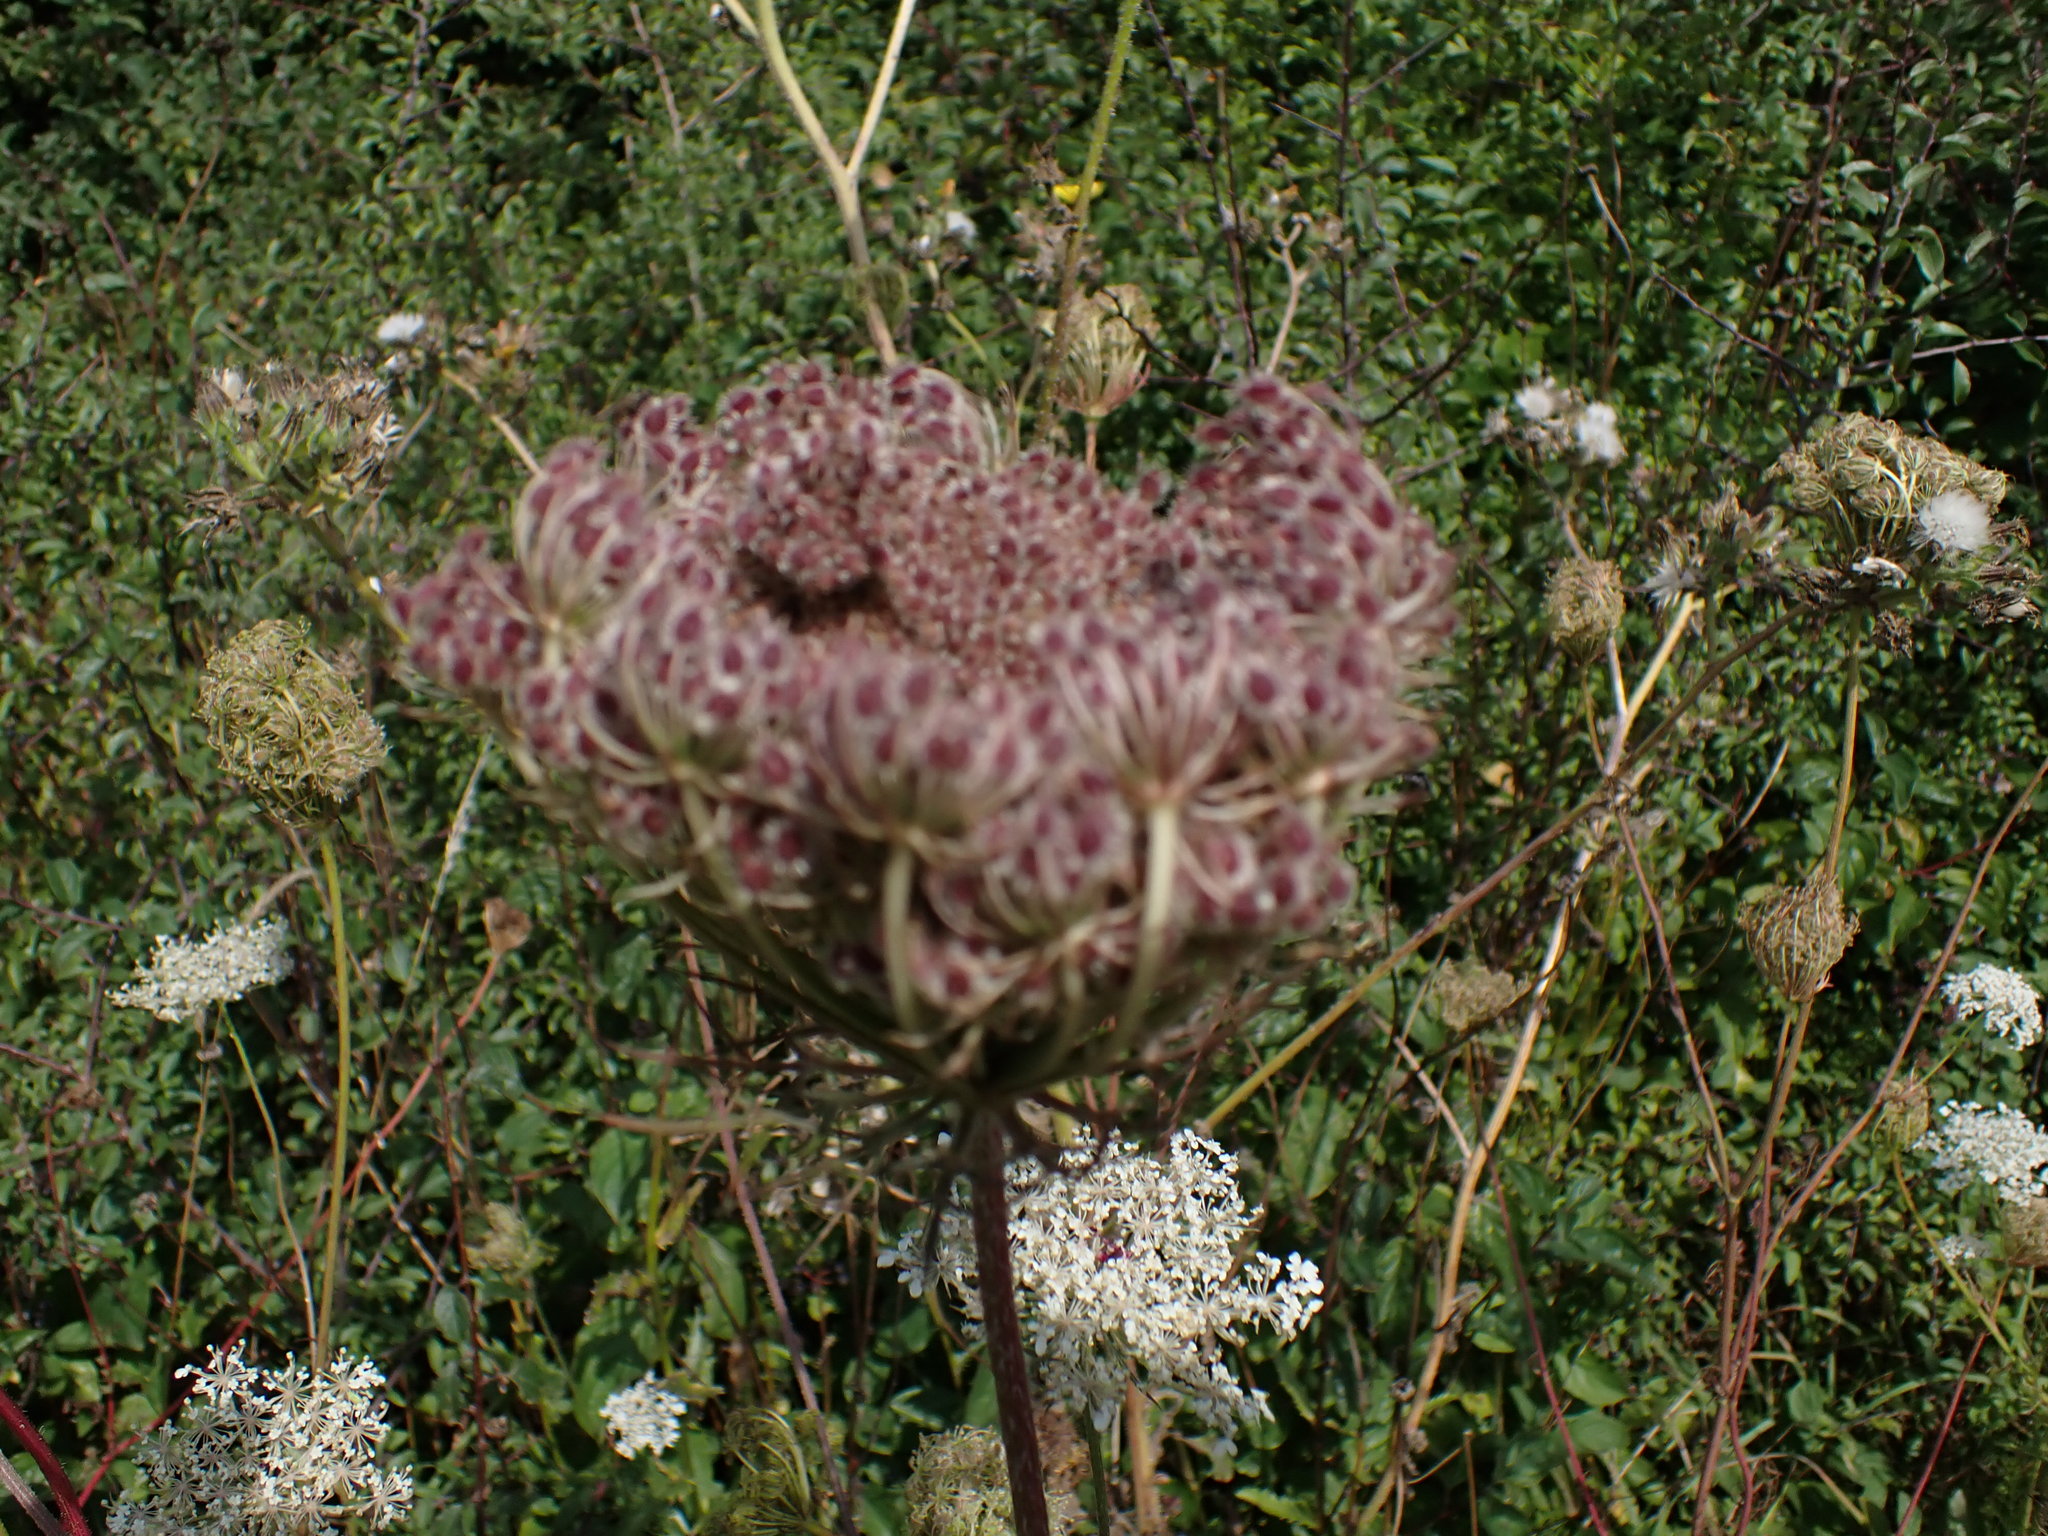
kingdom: Plantae
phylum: Tracheophyta
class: Magnoliopsida
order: Apiales
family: Apiaceae
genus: Daucus
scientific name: Daucus carota
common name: Wild carrot
